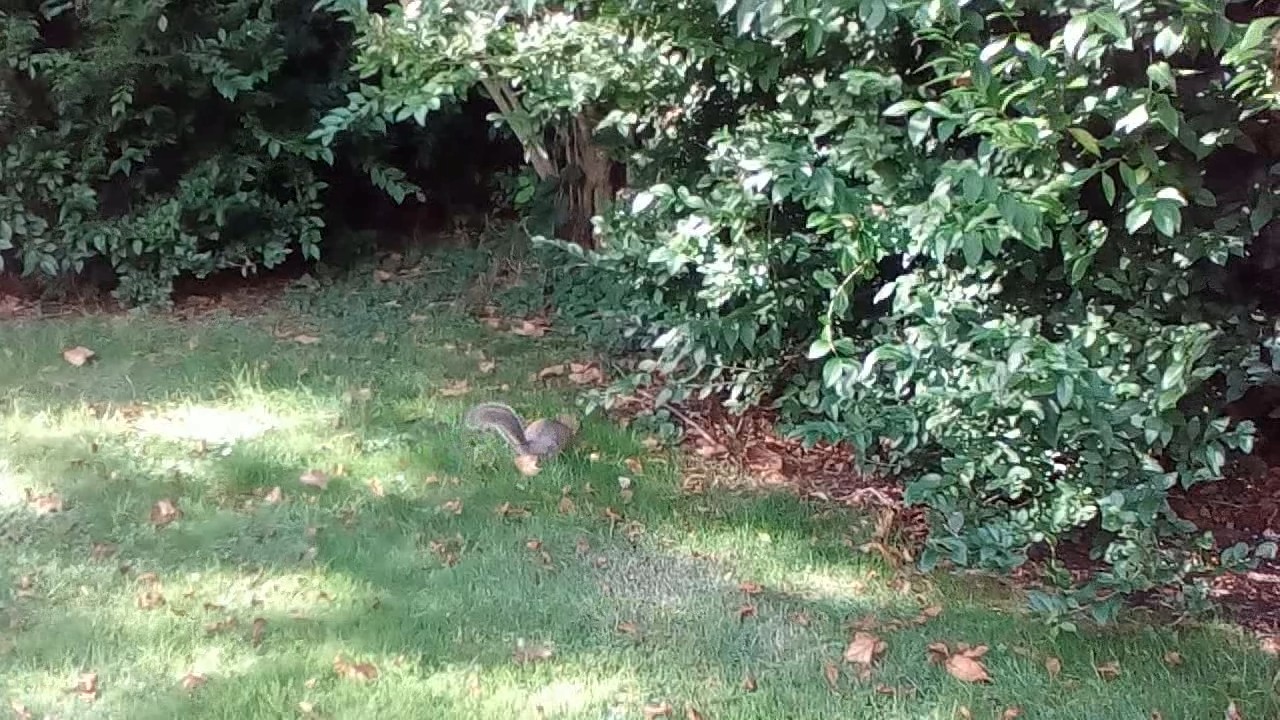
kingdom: Animalia
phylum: Chordata
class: Mammalia
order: Rodentia
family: Sciuridae
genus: Sciurus
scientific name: Sciurus carolinensis
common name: Eastern gray squirrel
